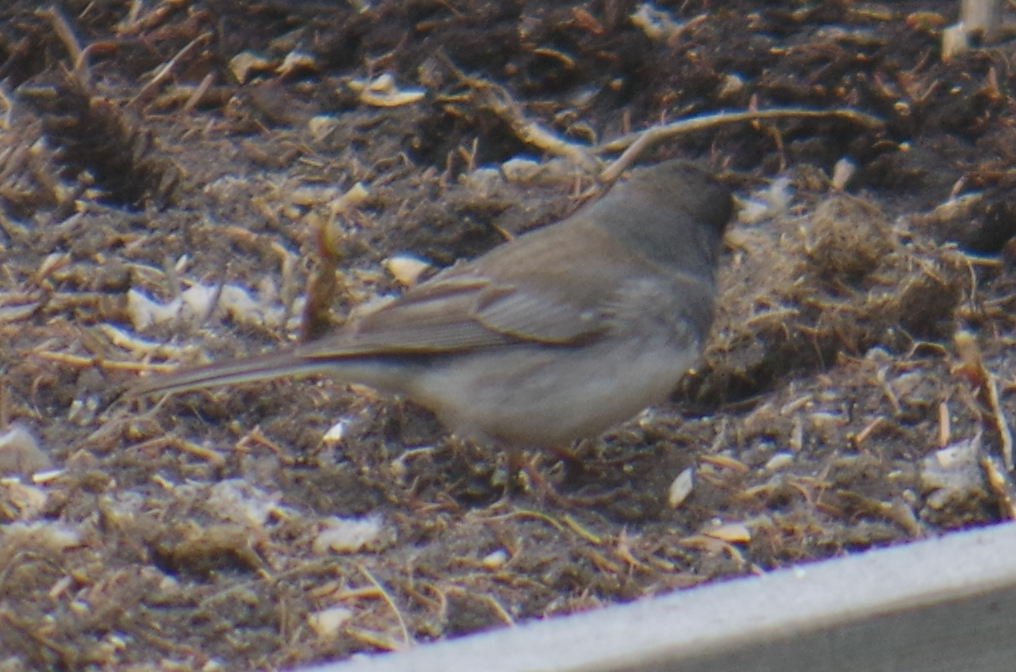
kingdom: Animalia
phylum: Chordata
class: Aves
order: Passeriformes
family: Passerellidae
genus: Junco
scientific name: Junco hyemalis
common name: Dark-eyed junco
